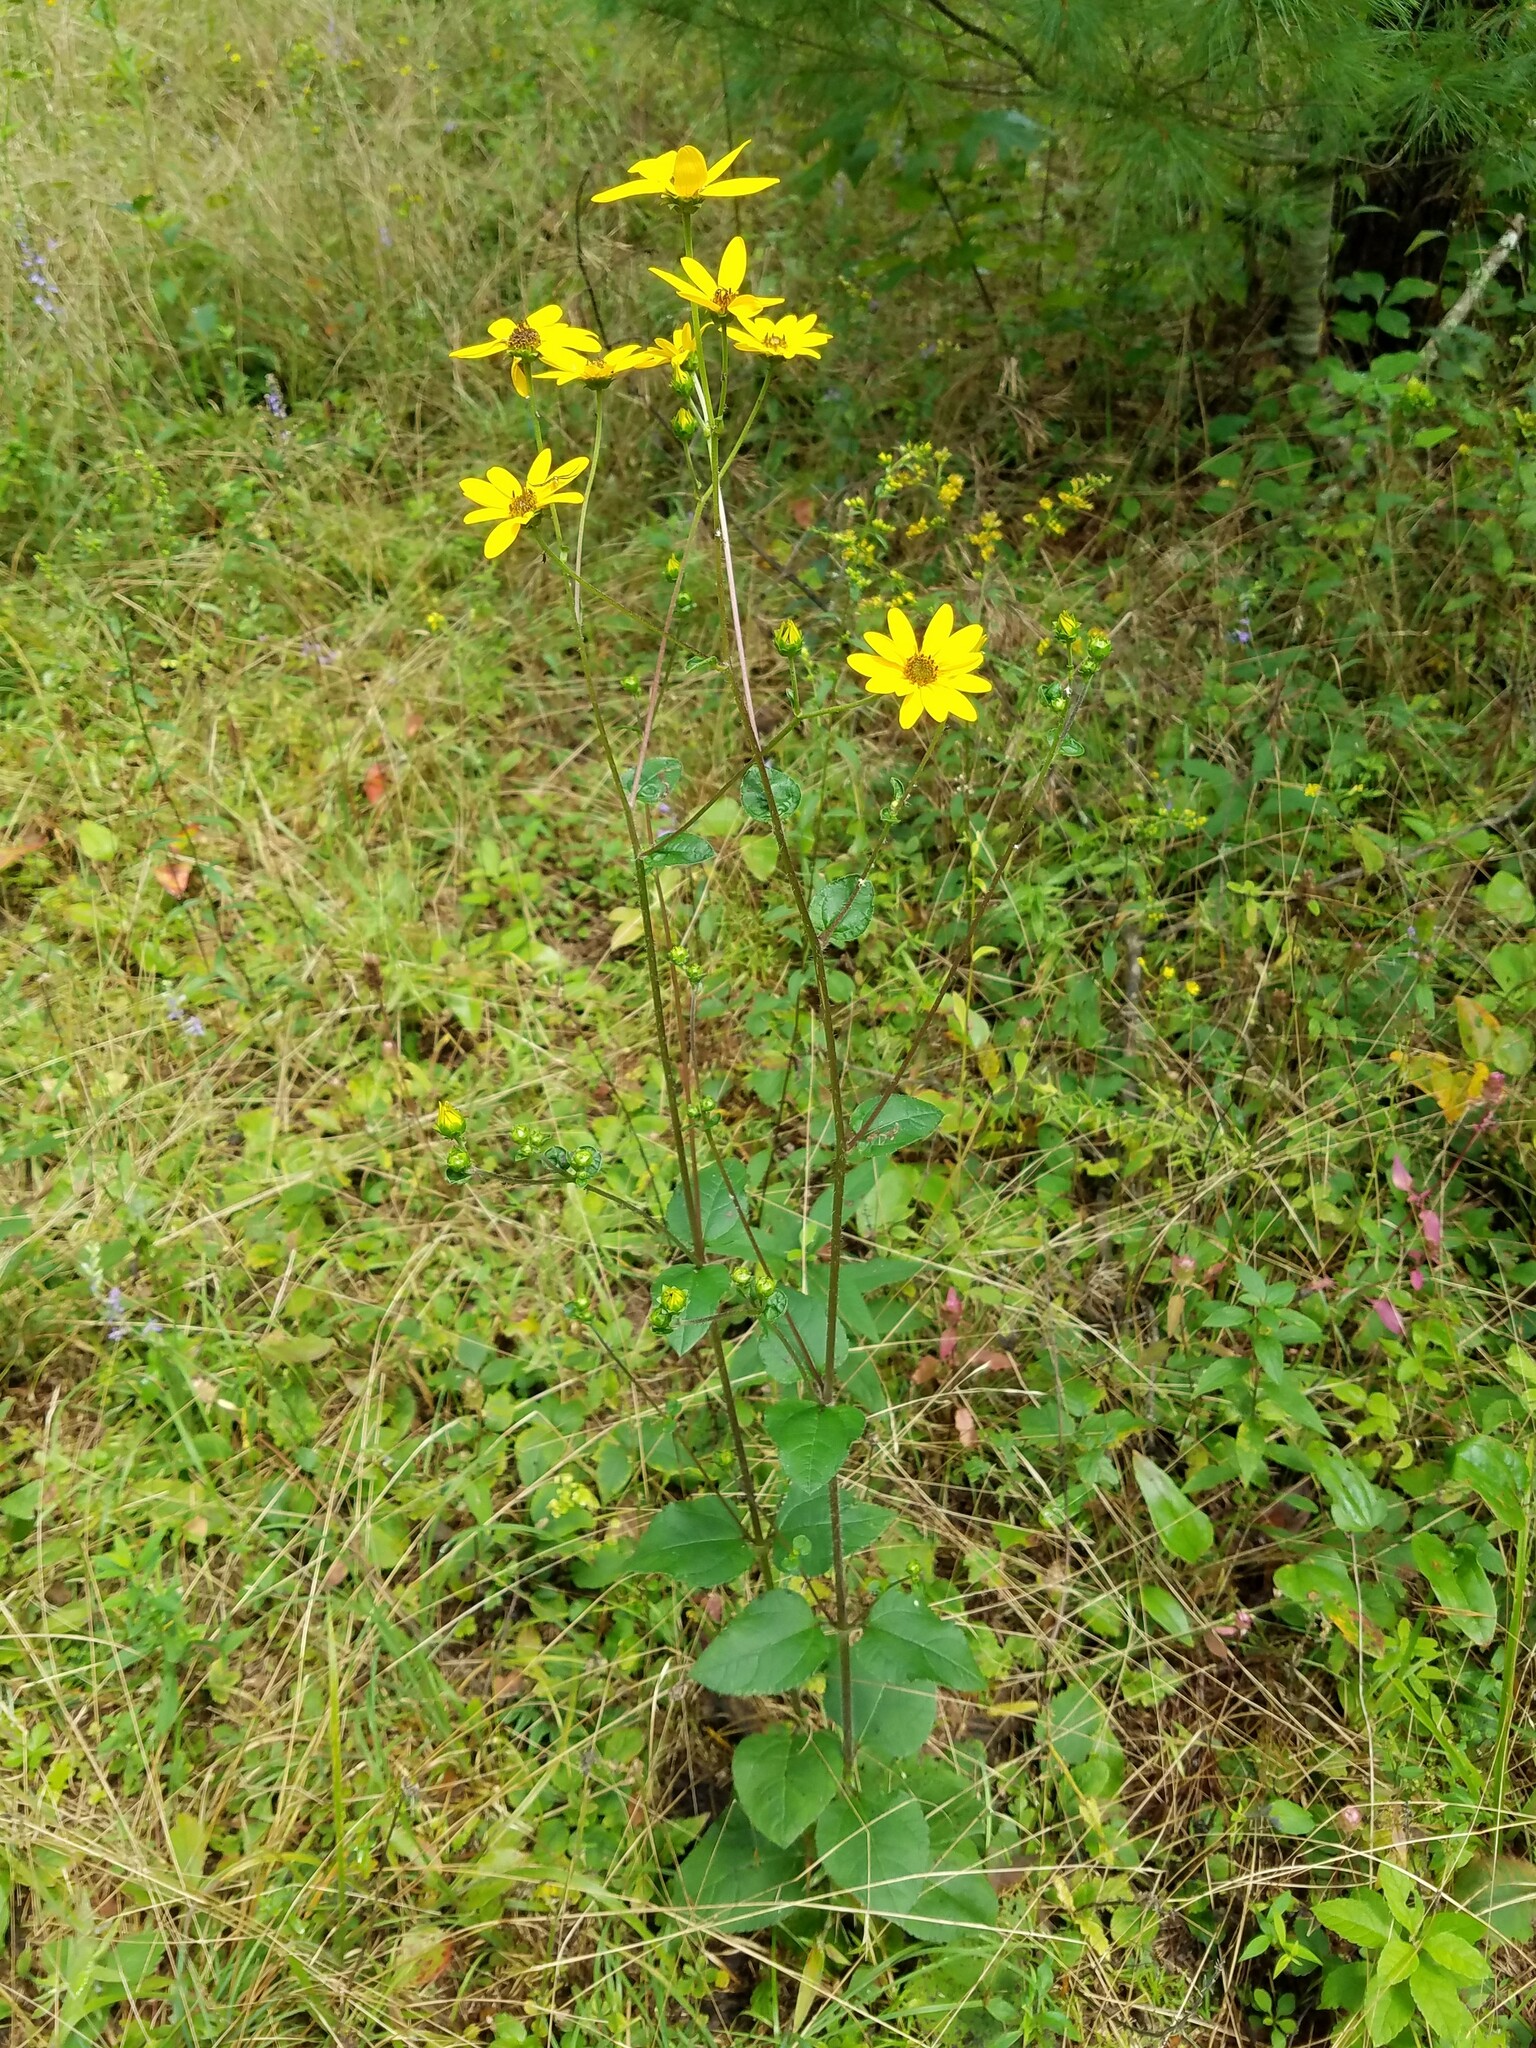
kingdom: Plantae
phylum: Tracheophyta
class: Magnoliopsida
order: Asterales
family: Asteraceae
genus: Helianthus
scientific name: Helianthus atrorubens
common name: Dark-eyed sunflower
